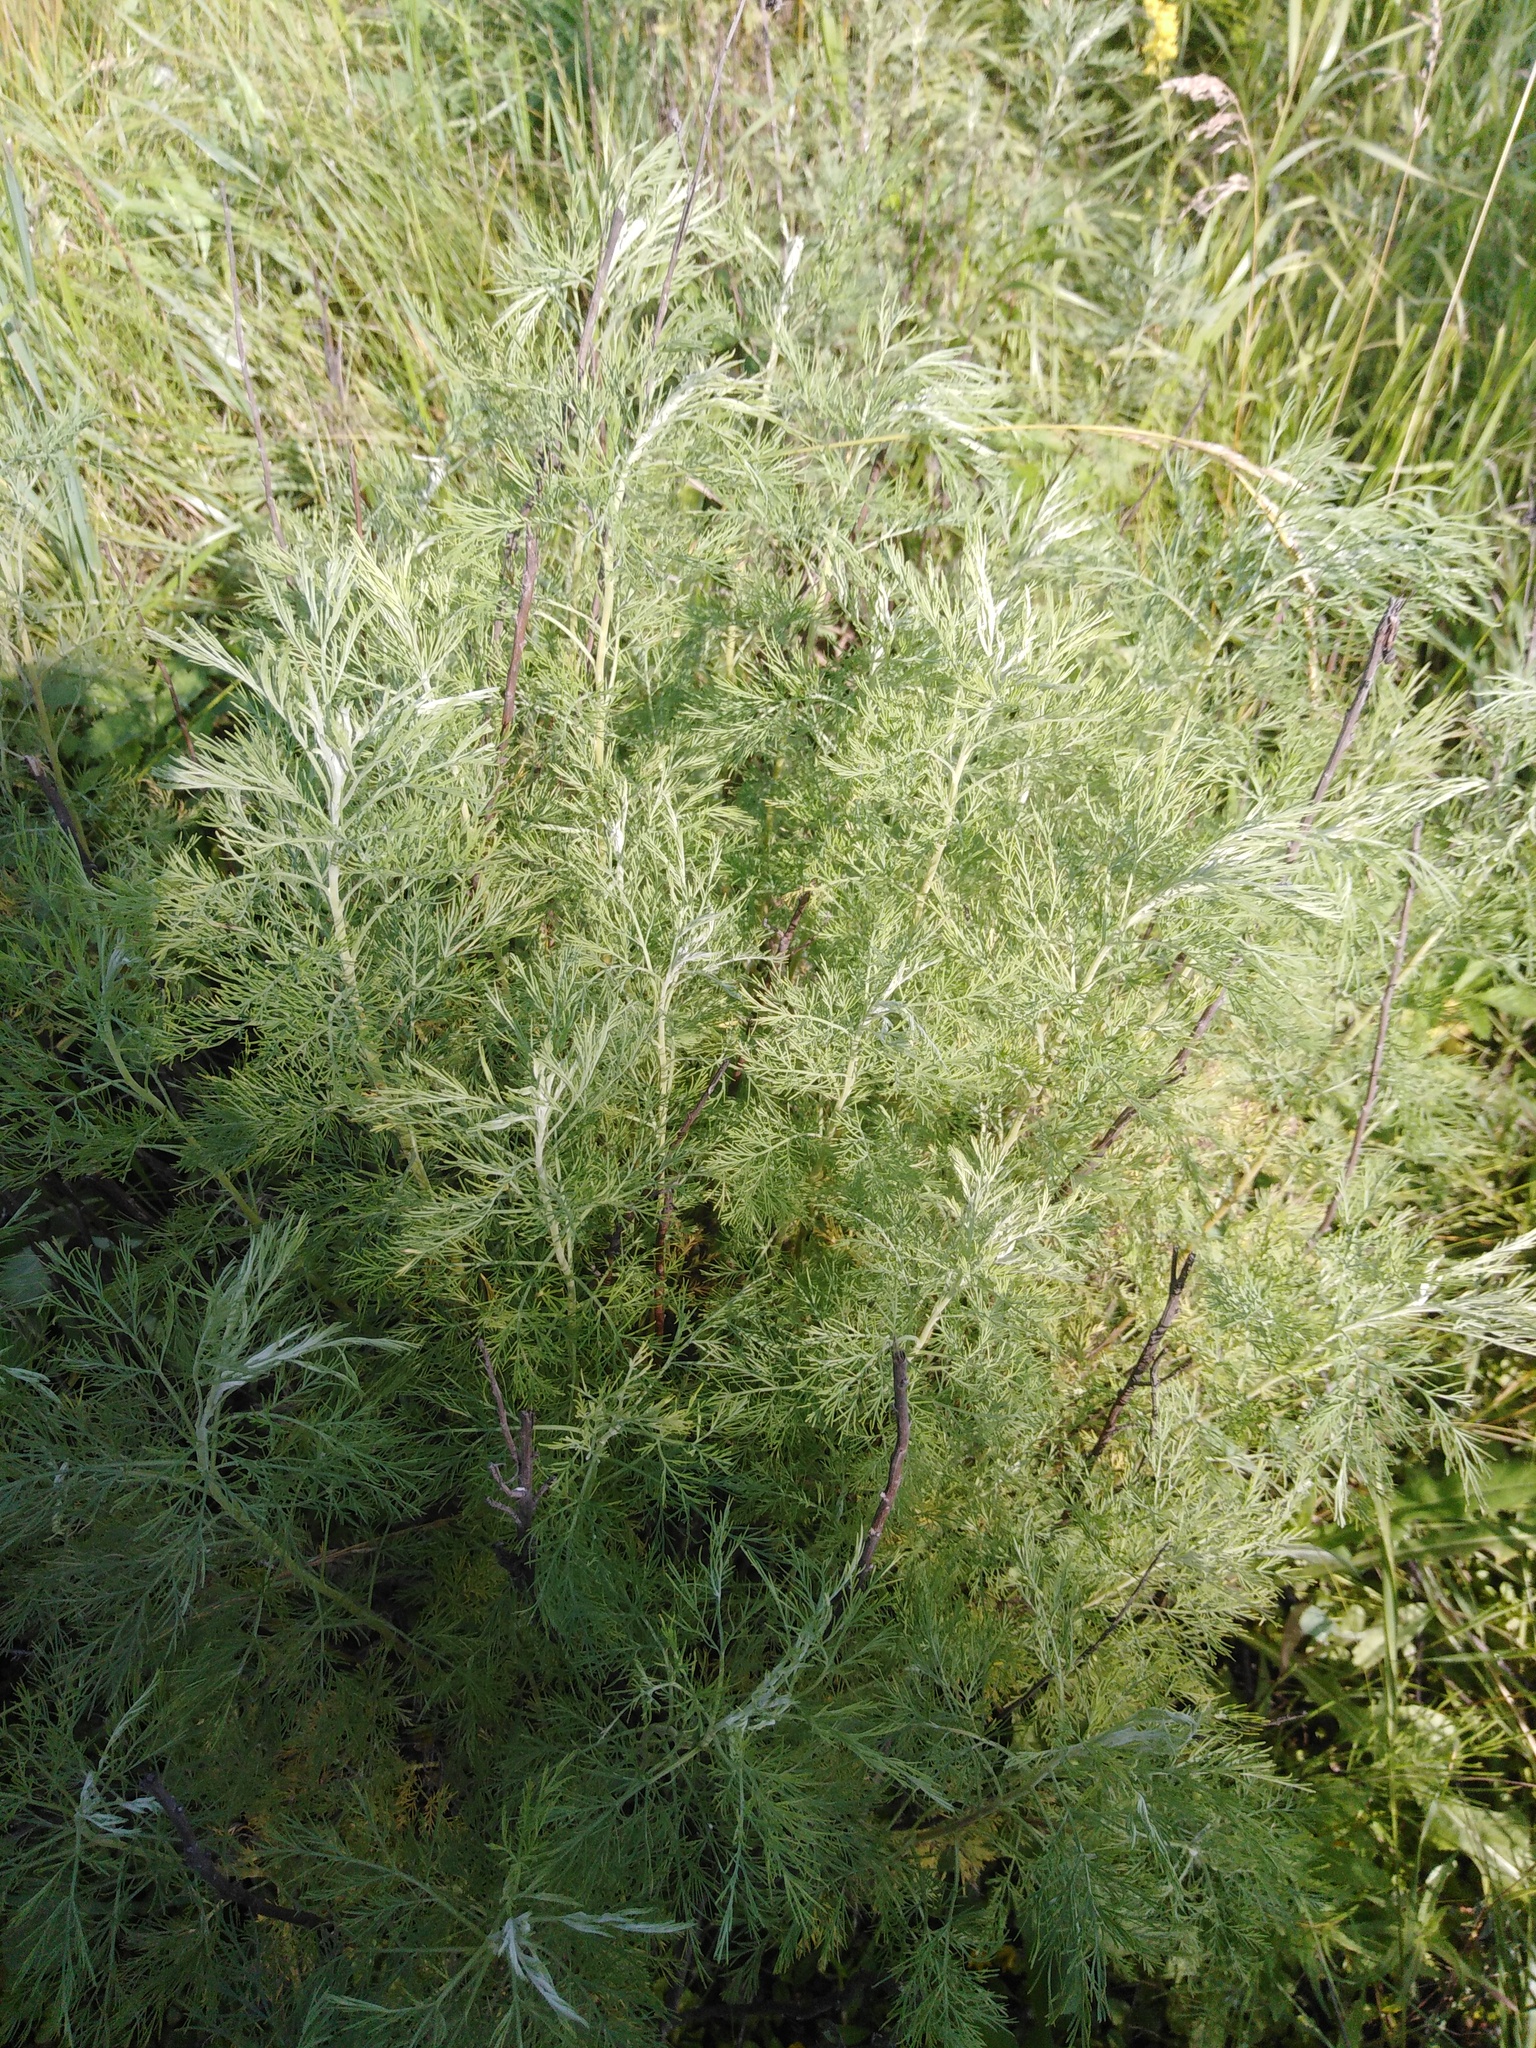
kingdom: Plantae
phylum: Tracheophyta
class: Magnoliopsida
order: Asterales
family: Asteraceae
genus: Artemisia
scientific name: Artemisia abrotanum
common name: Southernwood
